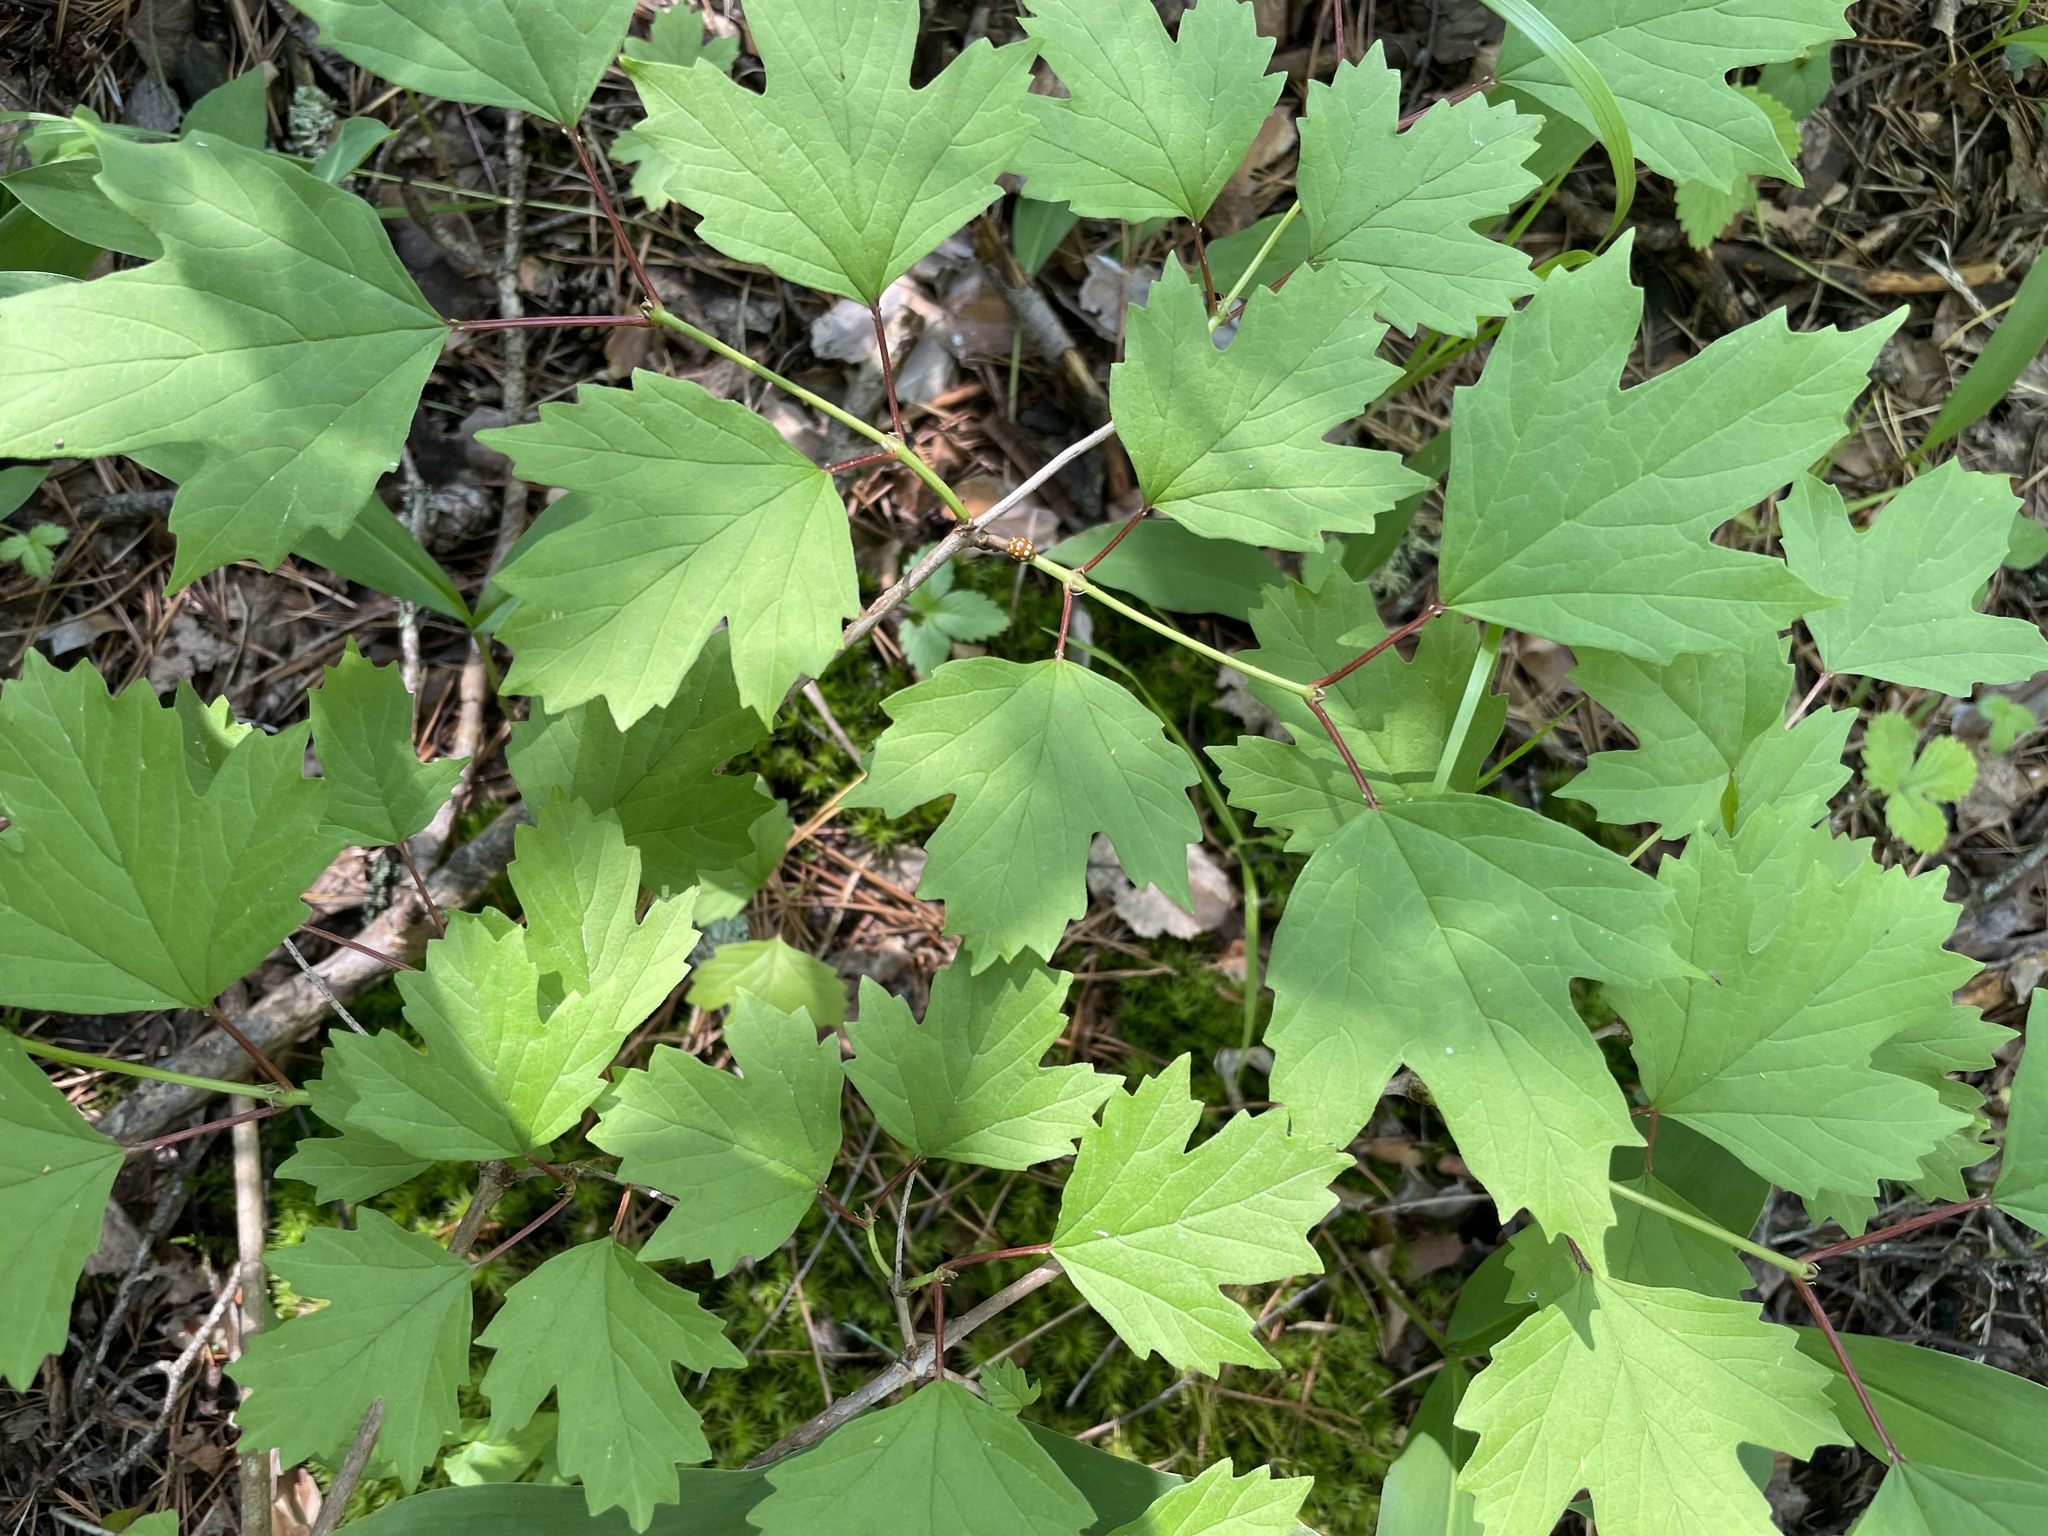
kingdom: Plantae
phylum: Tracheophyta
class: Magnoliopsida
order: Dipsacales
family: Viburnaceae
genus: Viburnum
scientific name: Viburnum opulus
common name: Guelder-rose
